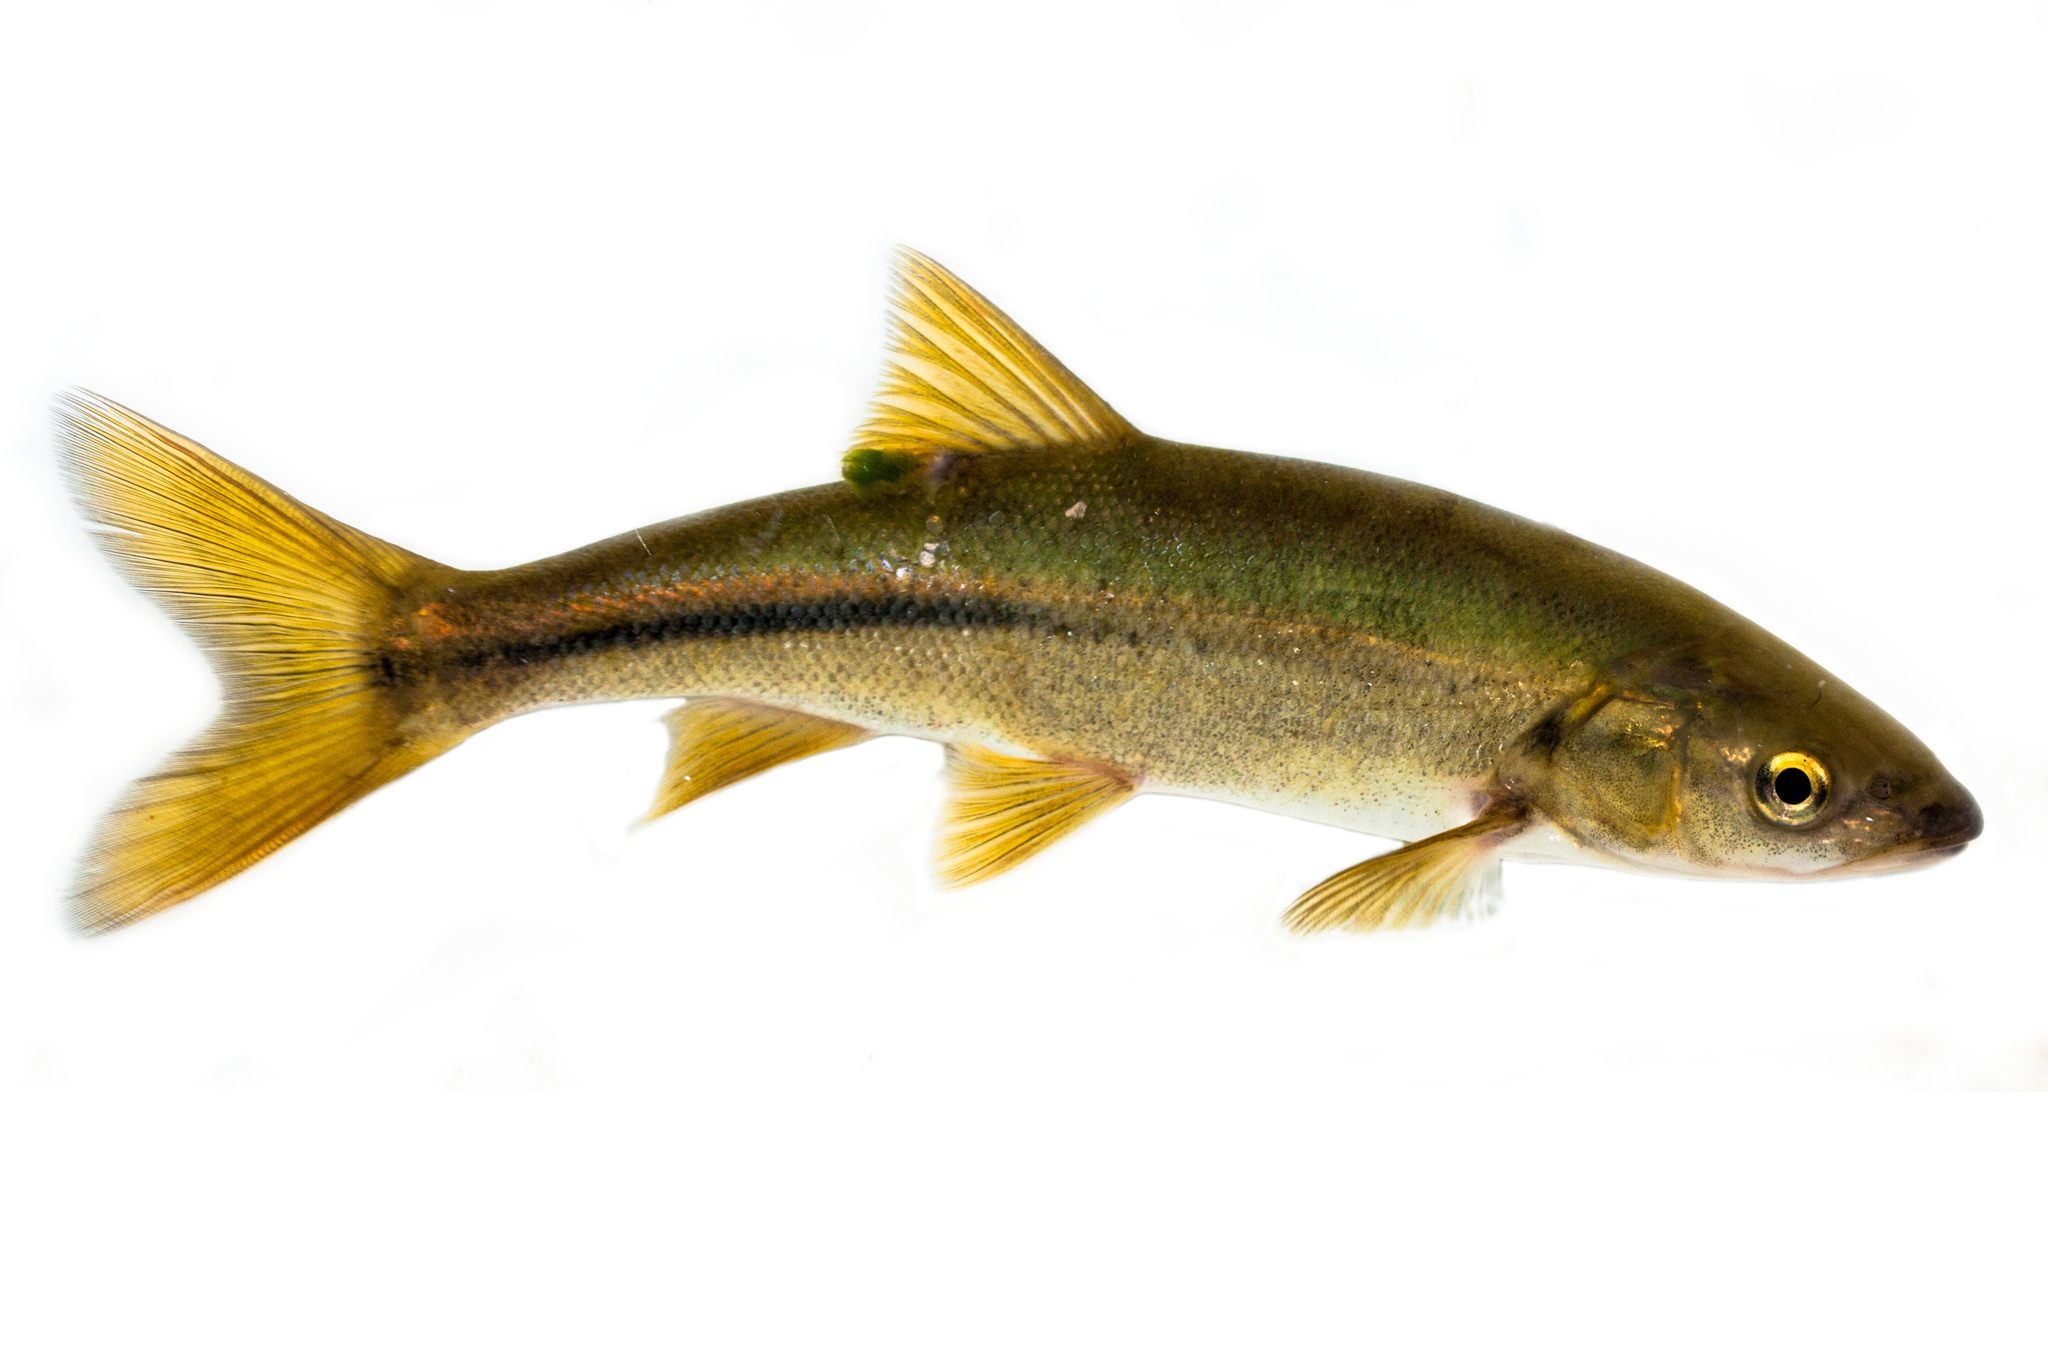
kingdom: Animalia
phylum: Chordata
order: Cypriniformes
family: Cyprinidae
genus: Mylopharodon
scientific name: Mylopharodon conocephalus
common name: Hardhead
